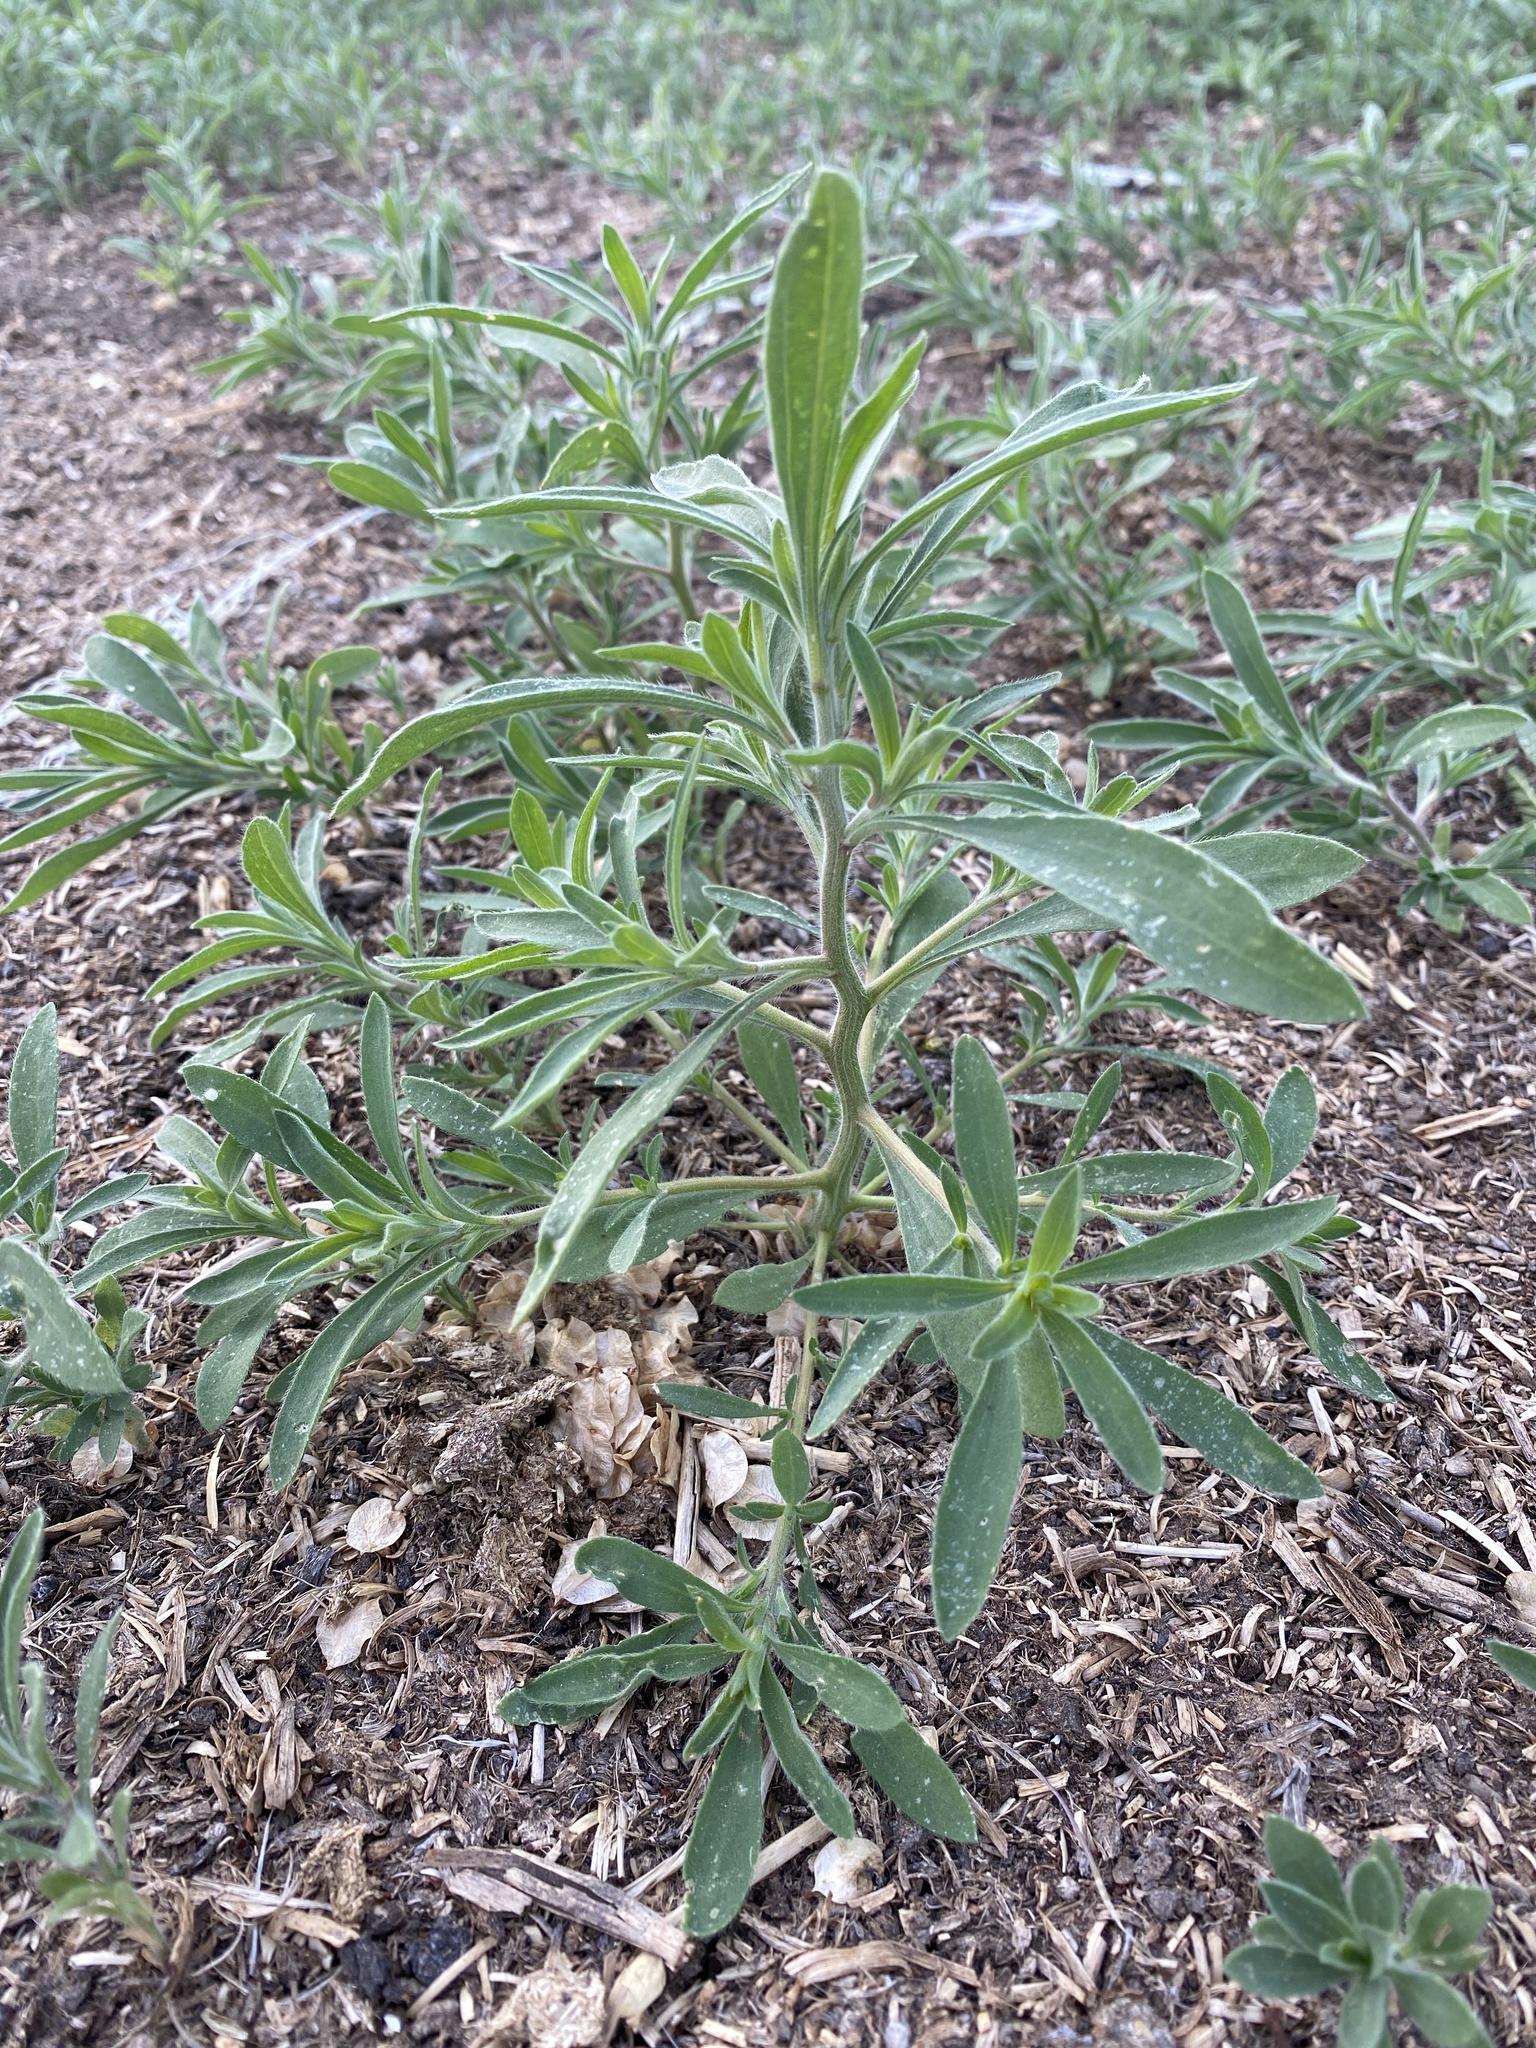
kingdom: Plantae
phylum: Tracheophyta
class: Magnoliopsida
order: Caryophyllales
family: Amaranthaceae
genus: Bassia
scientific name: Bassia scoparia
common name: Belvedere
